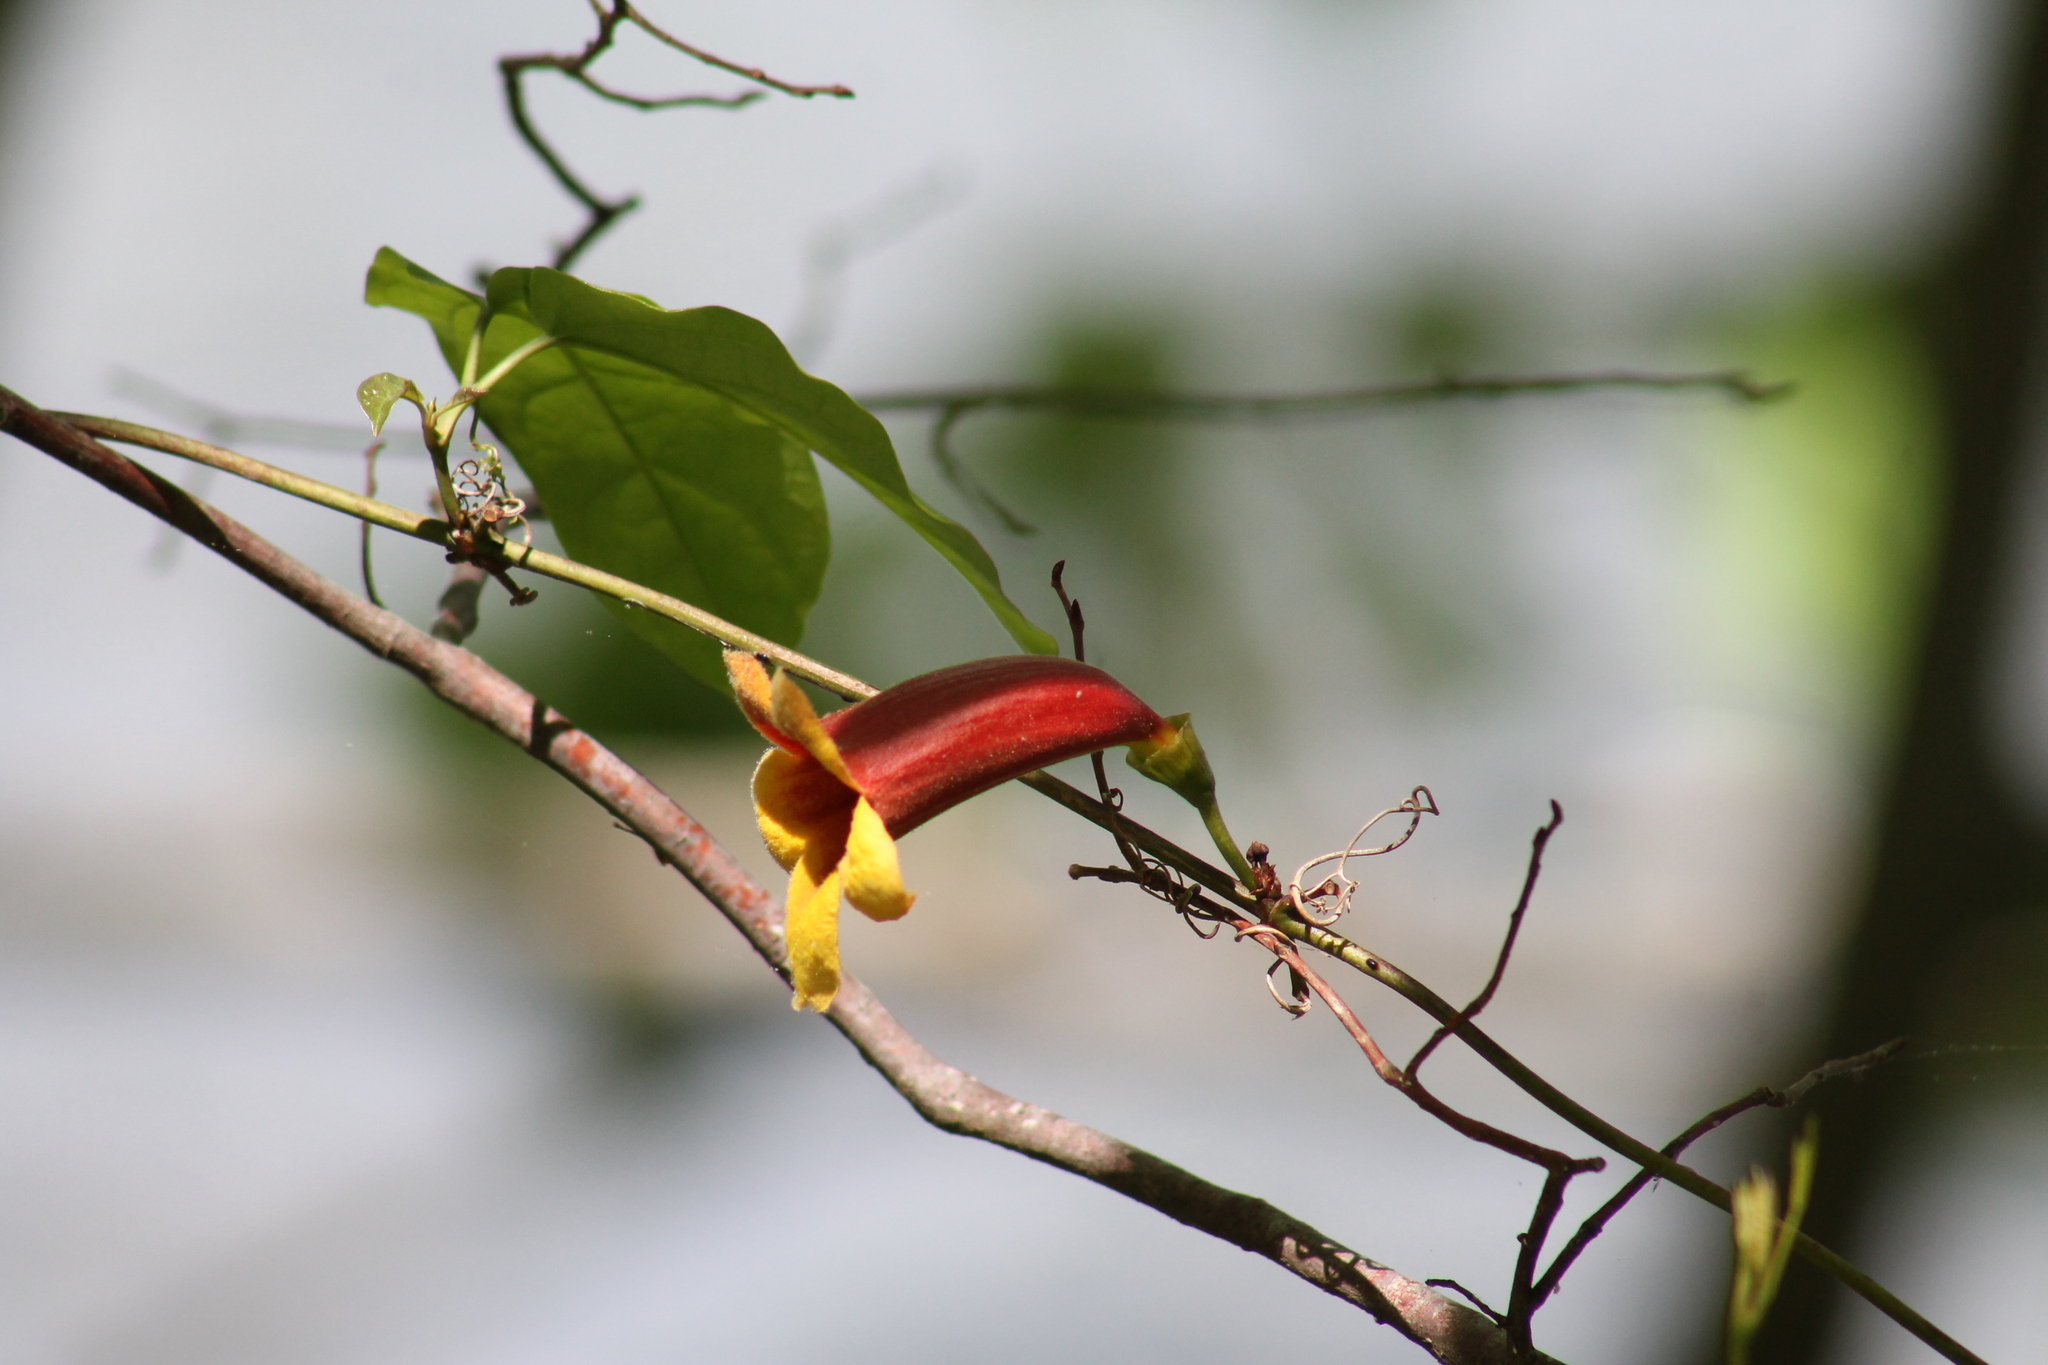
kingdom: Plantae
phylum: Tracheophyta
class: Magnoliopsida
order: Lamiales
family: Bignoniaceae
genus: Bignonia
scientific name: Bignonia capreolata
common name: Crossvine
